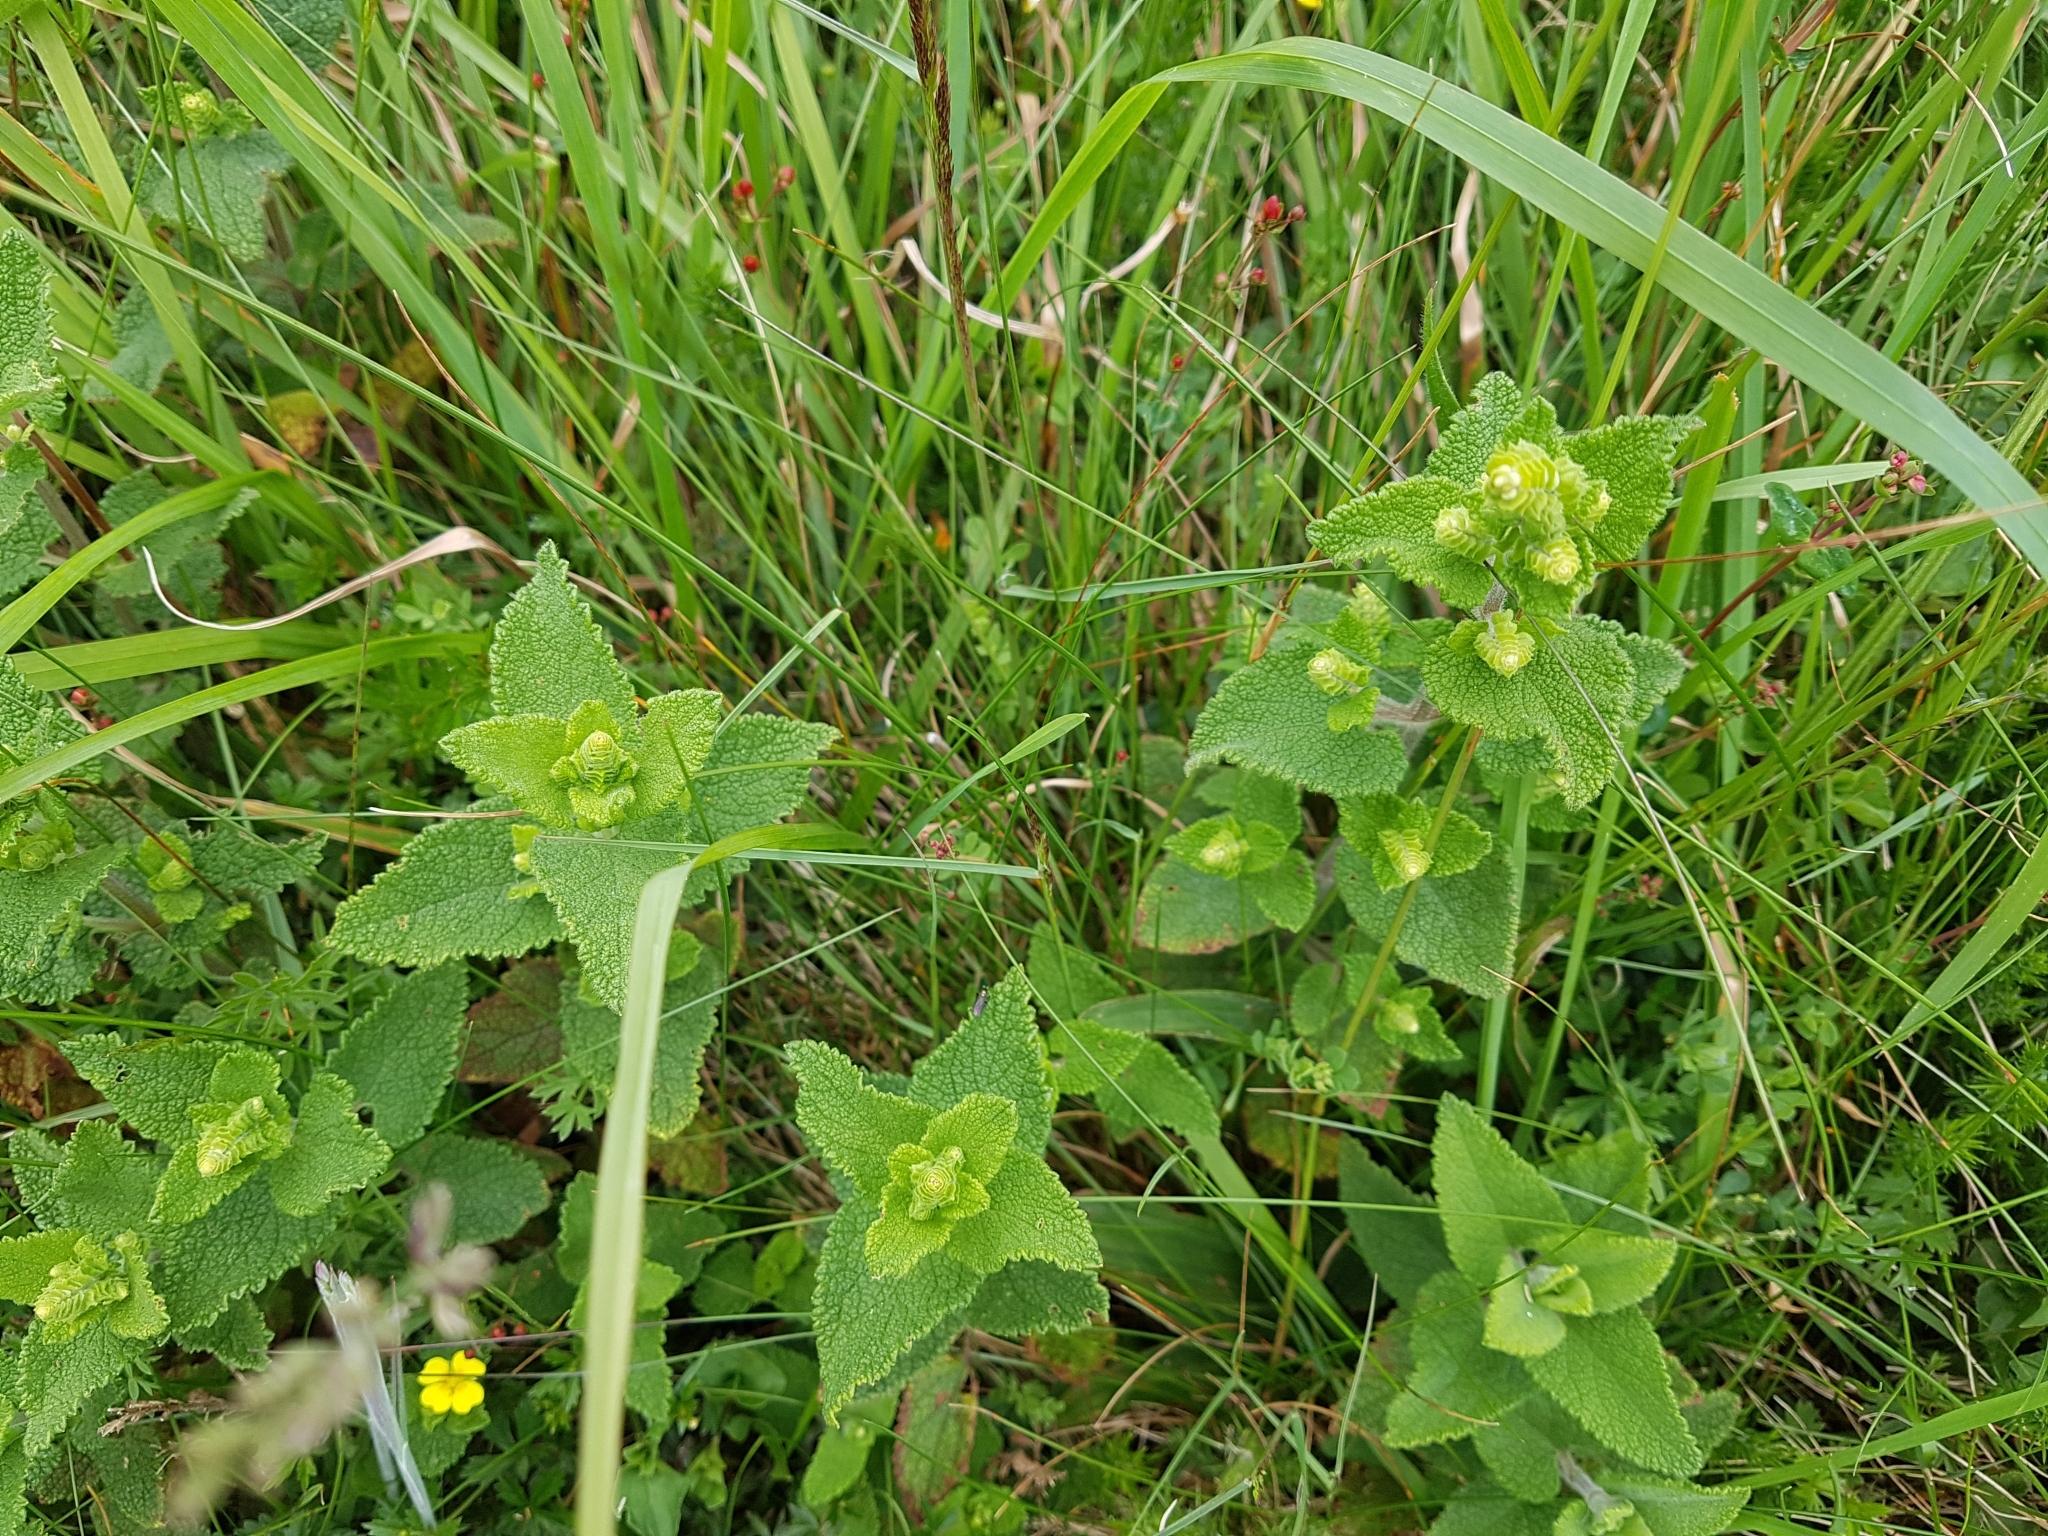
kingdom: Plantae
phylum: Tracheophyta
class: Magnoliopsida
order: Lamiales
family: Lamiaceae
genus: Teucrium
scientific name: Teucrium scorodonia
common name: Woodland germander
